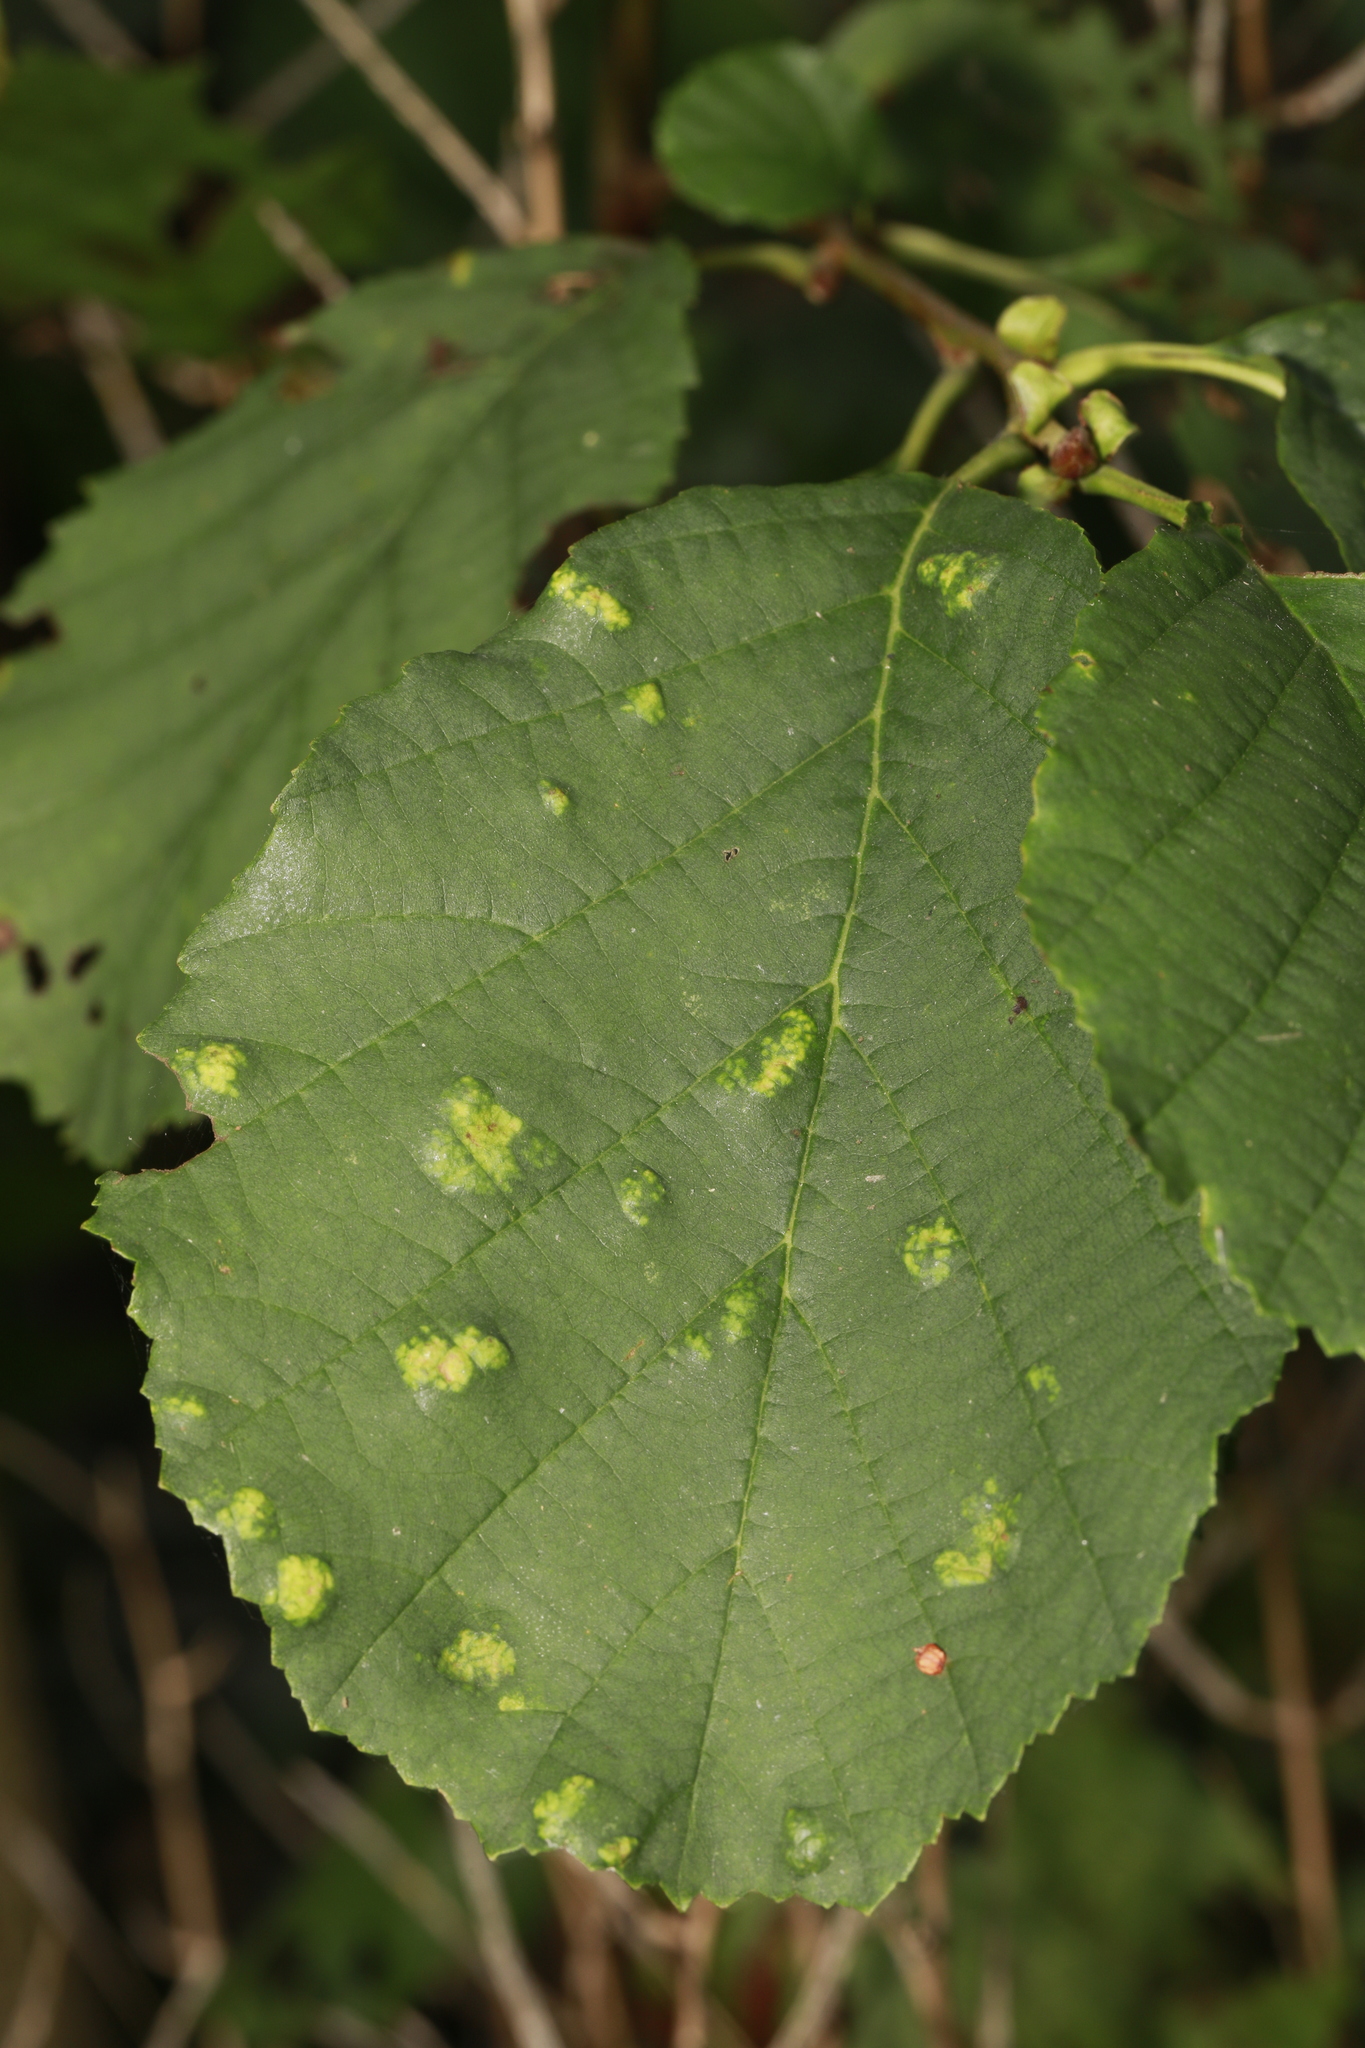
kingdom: Animalia
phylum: Arthropoda
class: Arachnida
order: Trombidiformes
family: Eriophyidae
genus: Acalitus
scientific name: Acalitus brevitarsus
